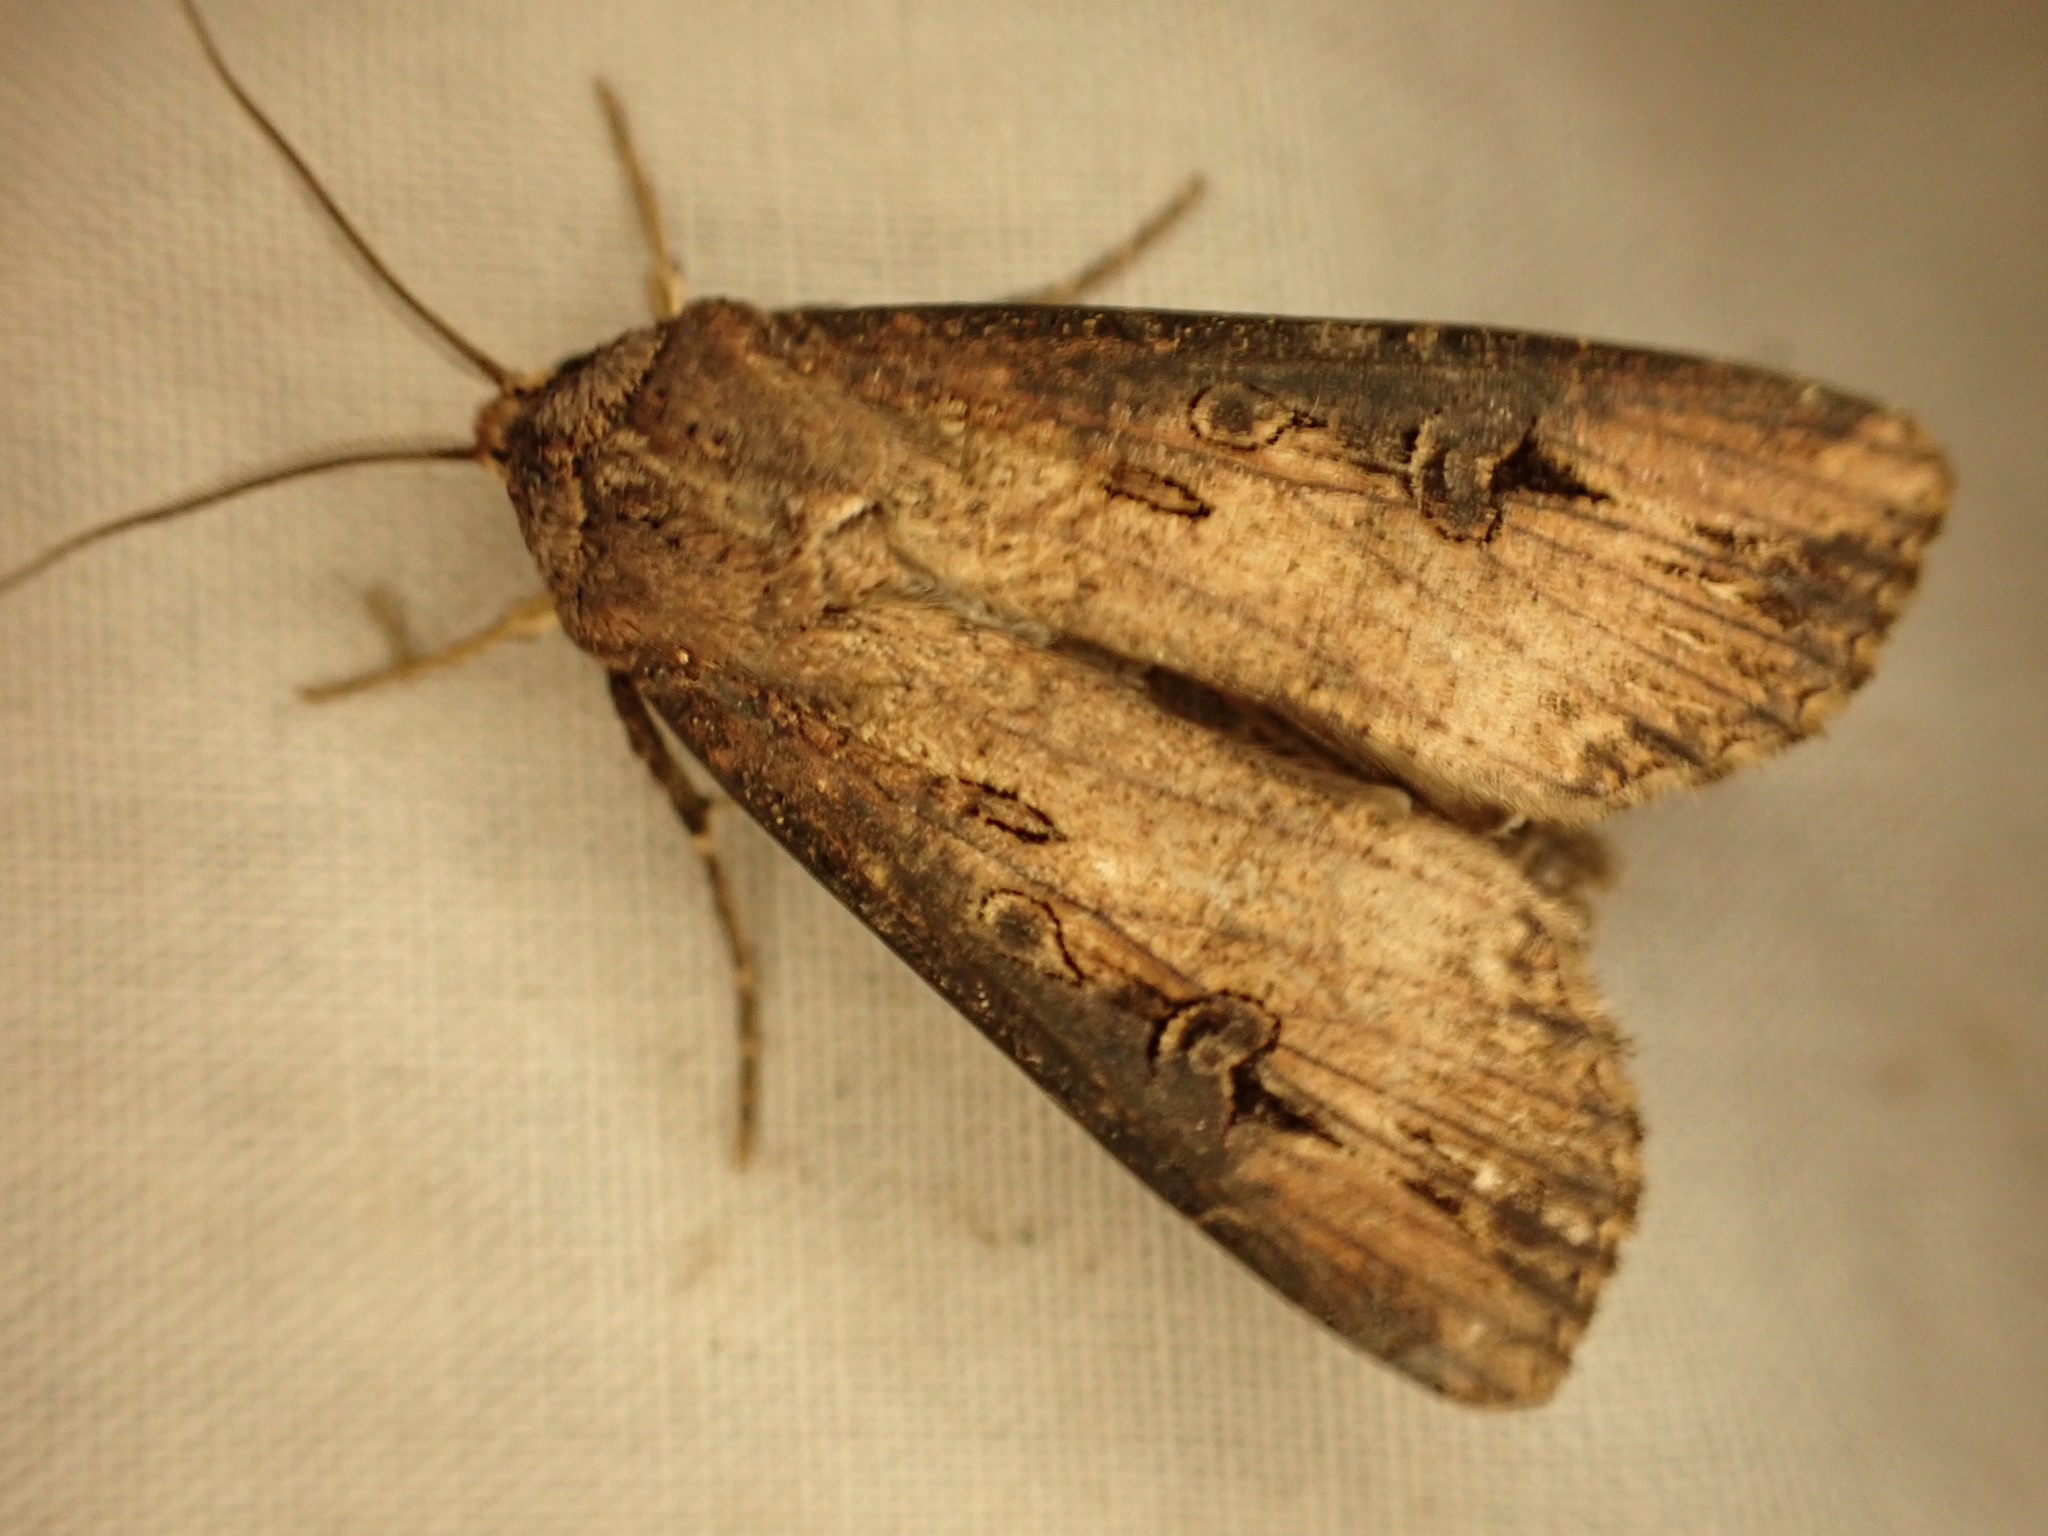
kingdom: Animalia
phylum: Arthropoda
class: Insecta
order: Lepidoptera
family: Noctuidae
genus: Agrotis
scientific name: Agrotis ipsilon
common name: Dark sword-grass
